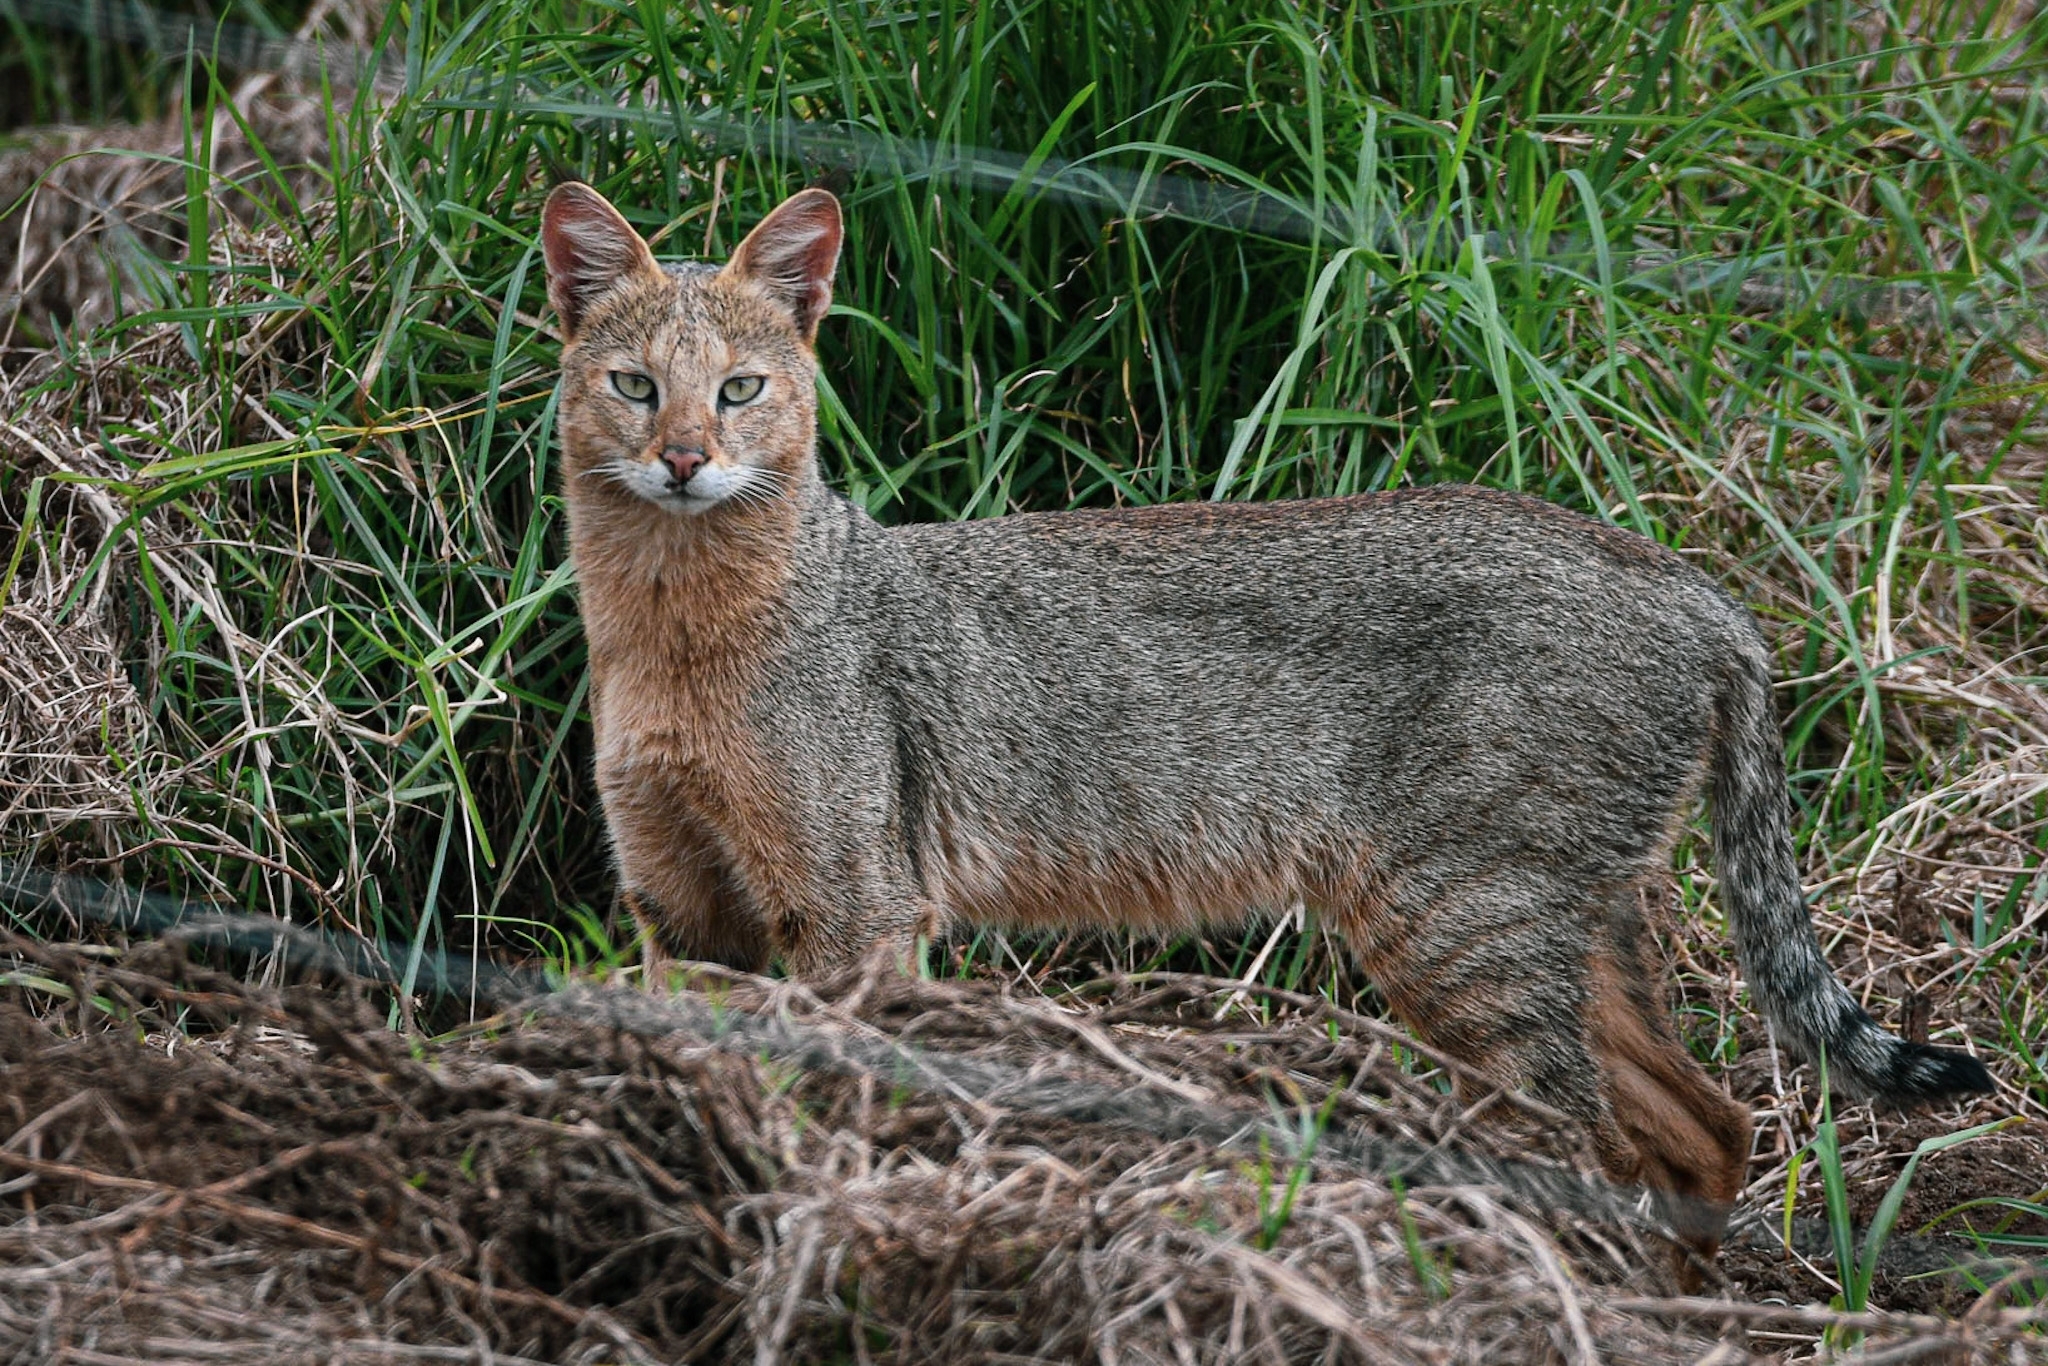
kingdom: Animalia
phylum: Chordata
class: Mammalia
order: Carnivora
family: Felidae
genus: Felis
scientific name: Felis chaus
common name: Jungle cat
